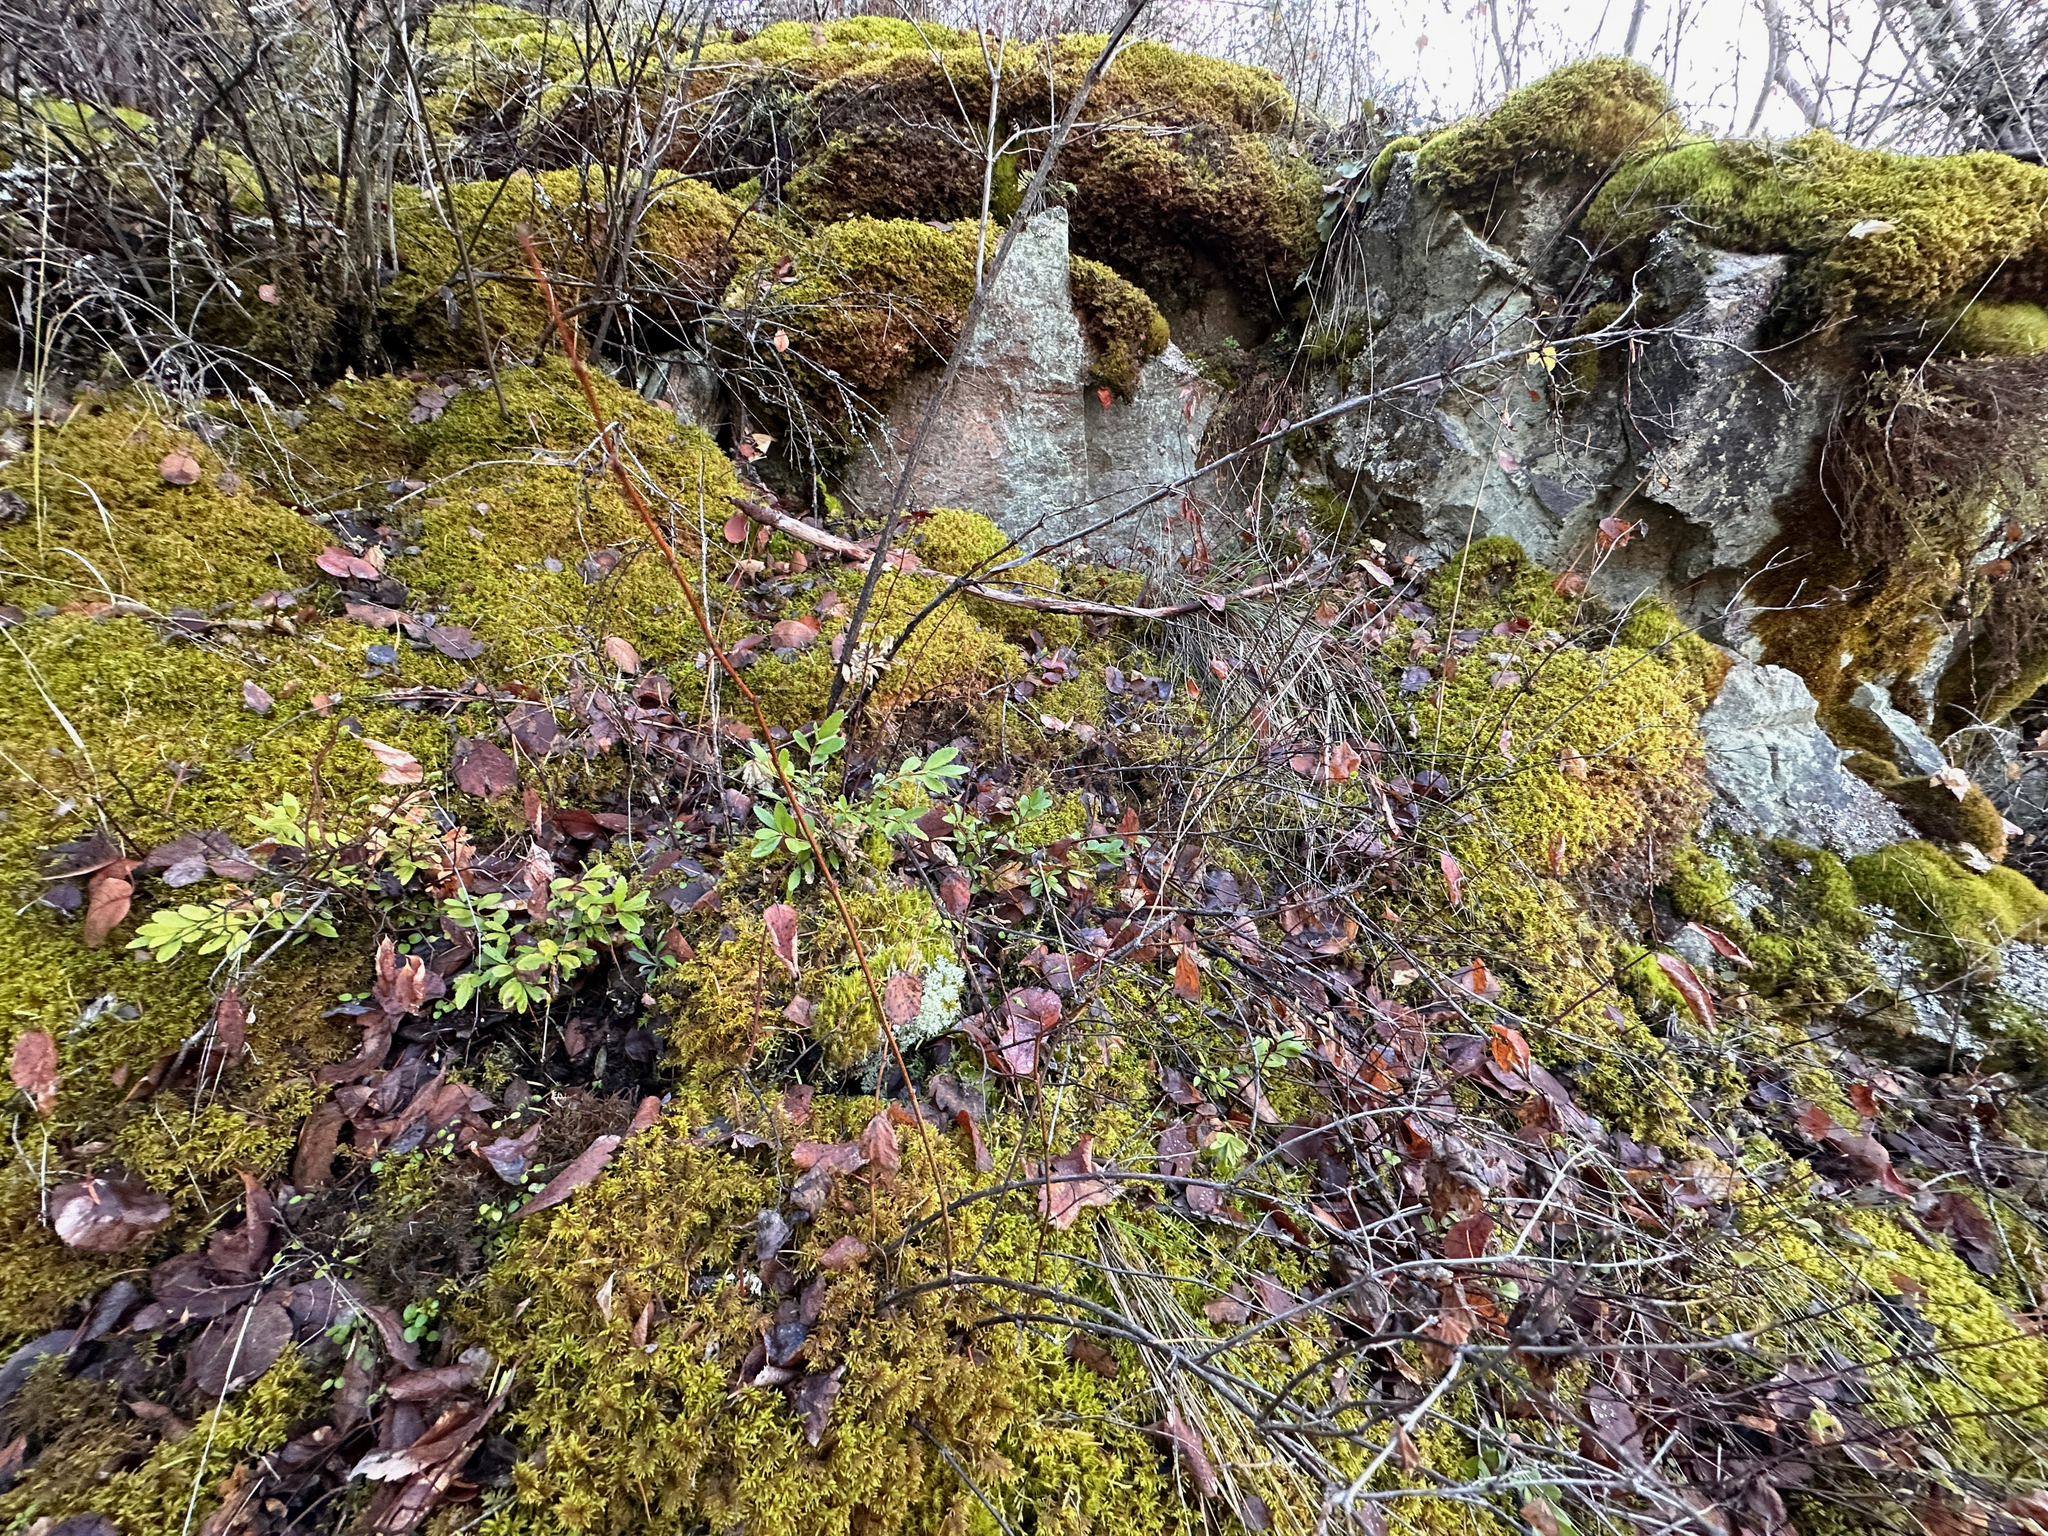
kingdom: Plantae
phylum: Tracheophyta
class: Magnoliopsida
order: Celastrales
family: Celastraceae
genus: Paxistima
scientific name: Paxistima myrsinites
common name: Mountain-lover
